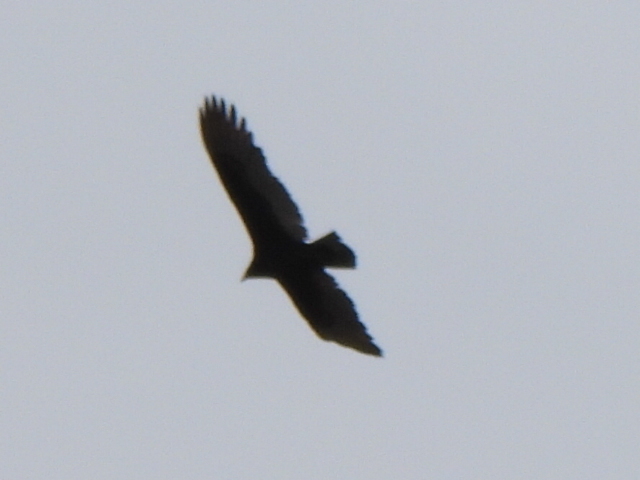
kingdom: Animalia
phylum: Chordata
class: Aves
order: Accipitriformes
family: Cathartidae
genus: Cathartes
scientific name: Cathartes aura
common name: Turkey vulture
